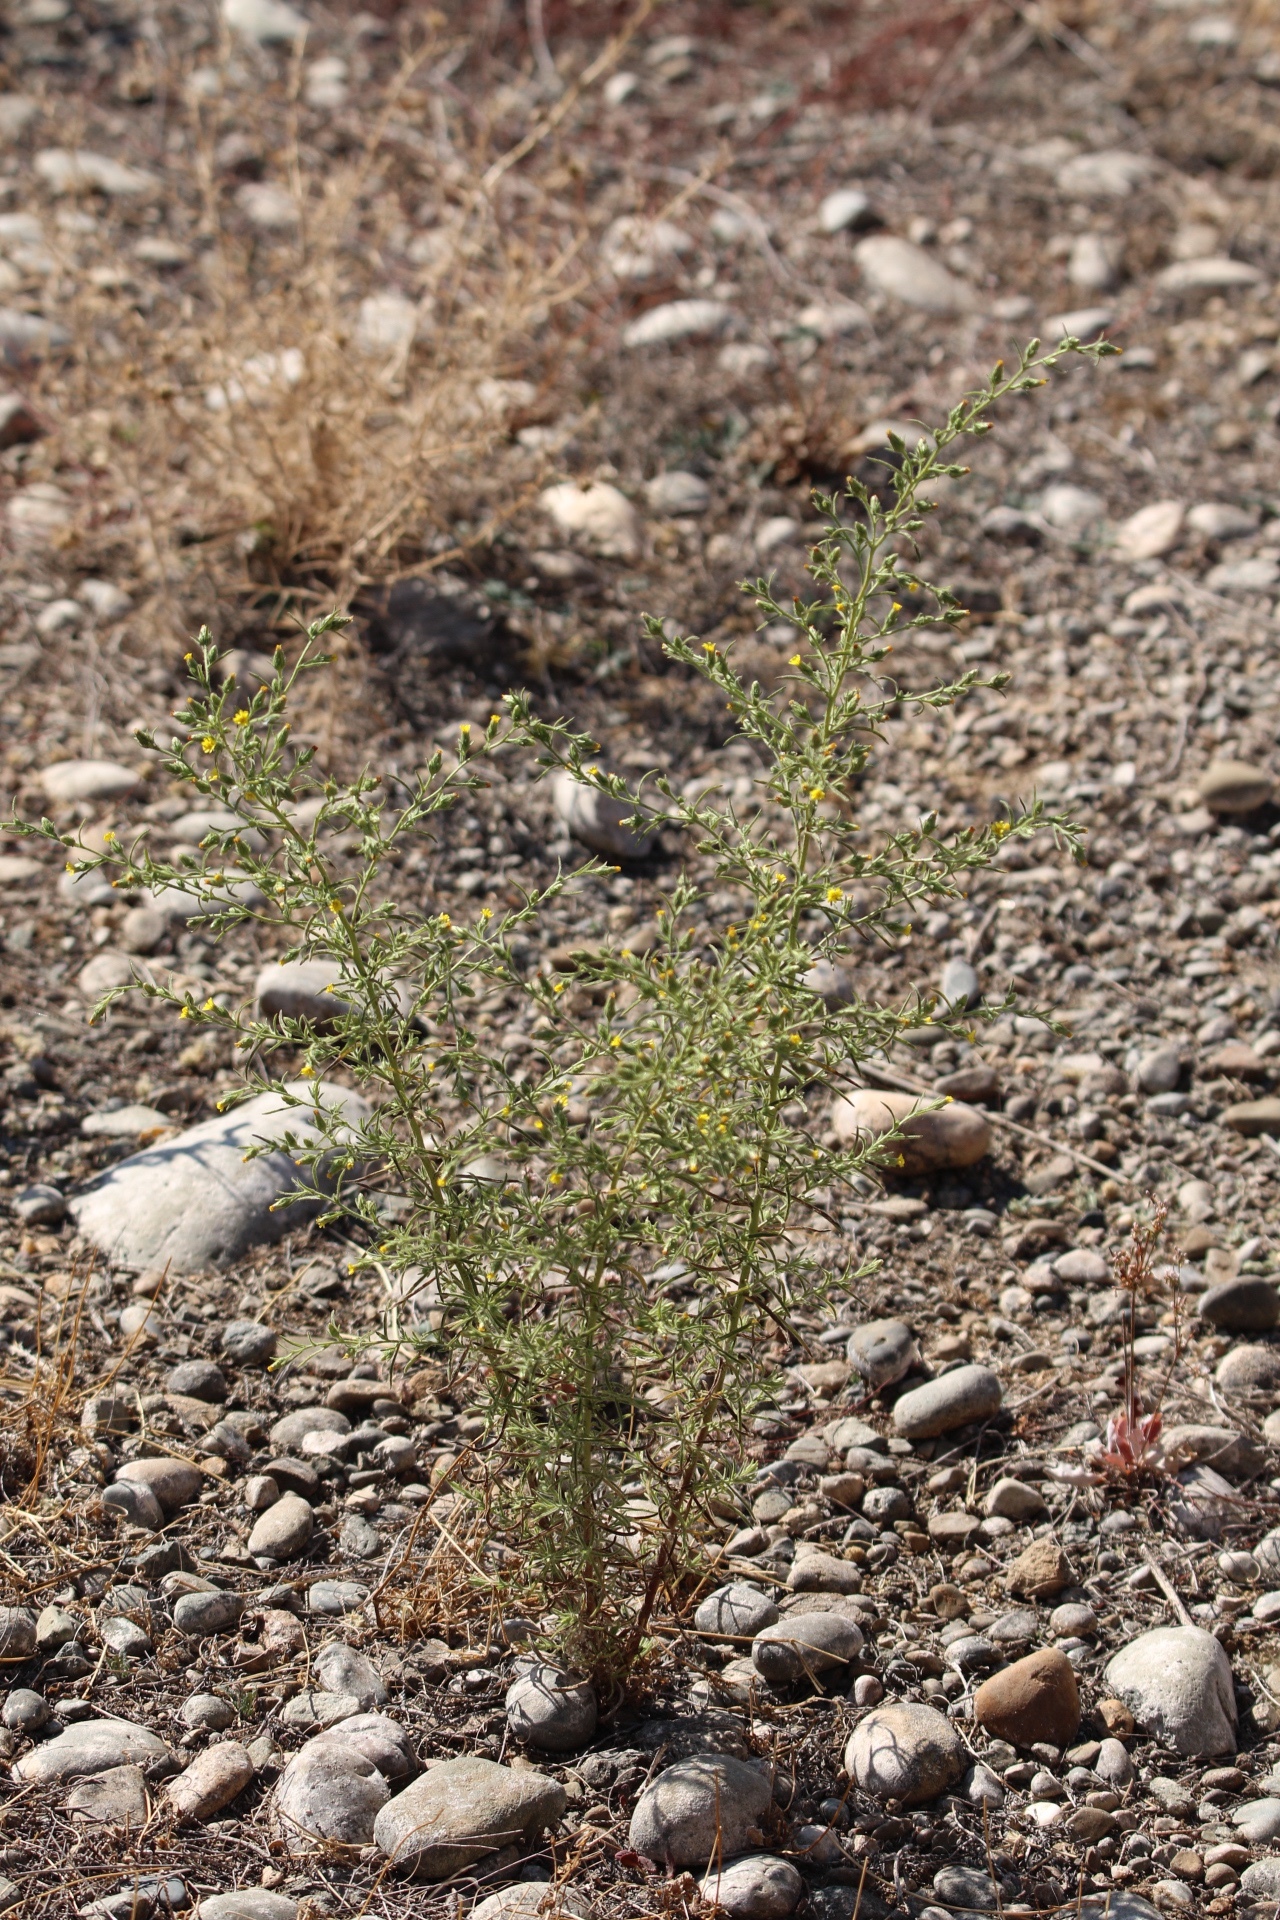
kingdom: Plantae
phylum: Tracheophyta
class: Magnoliopsida
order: Asterales
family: Asteraceae
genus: Dittrichia
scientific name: Dittrichia graveolens
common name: Stinking fleabane
